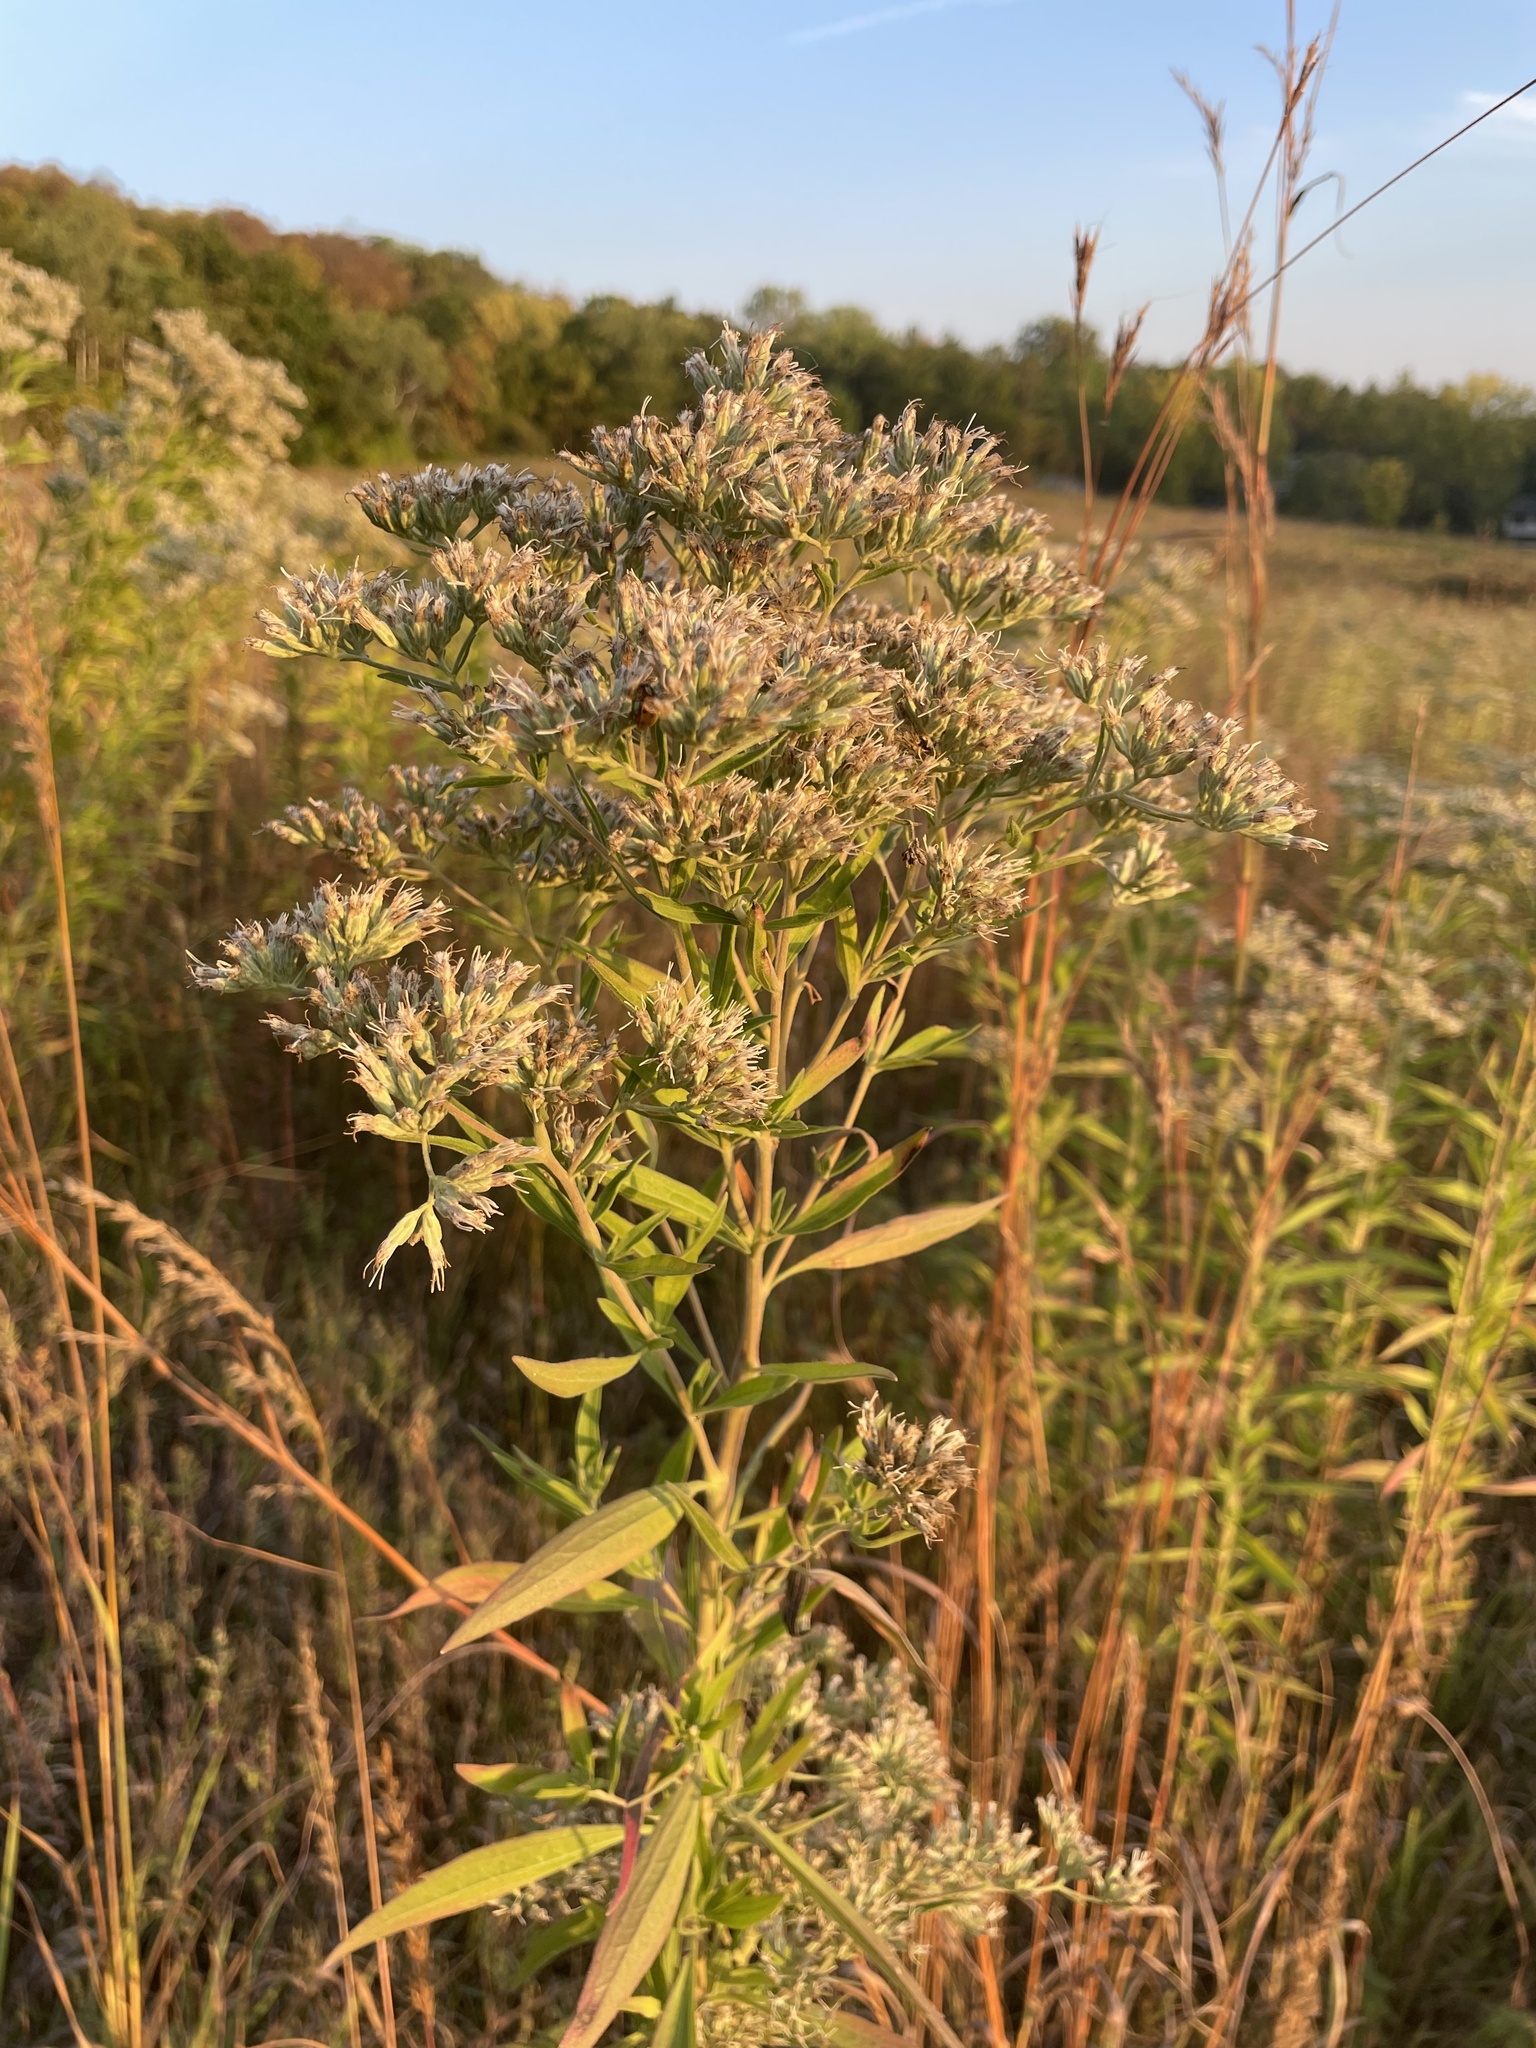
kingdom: Plantae
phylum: Tracheophyta
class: Magnoliopsida
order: Asterales
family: Asteraceae
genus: Eupatorium
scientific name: Eupatorium altissimum
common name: Tall thoroughwort
